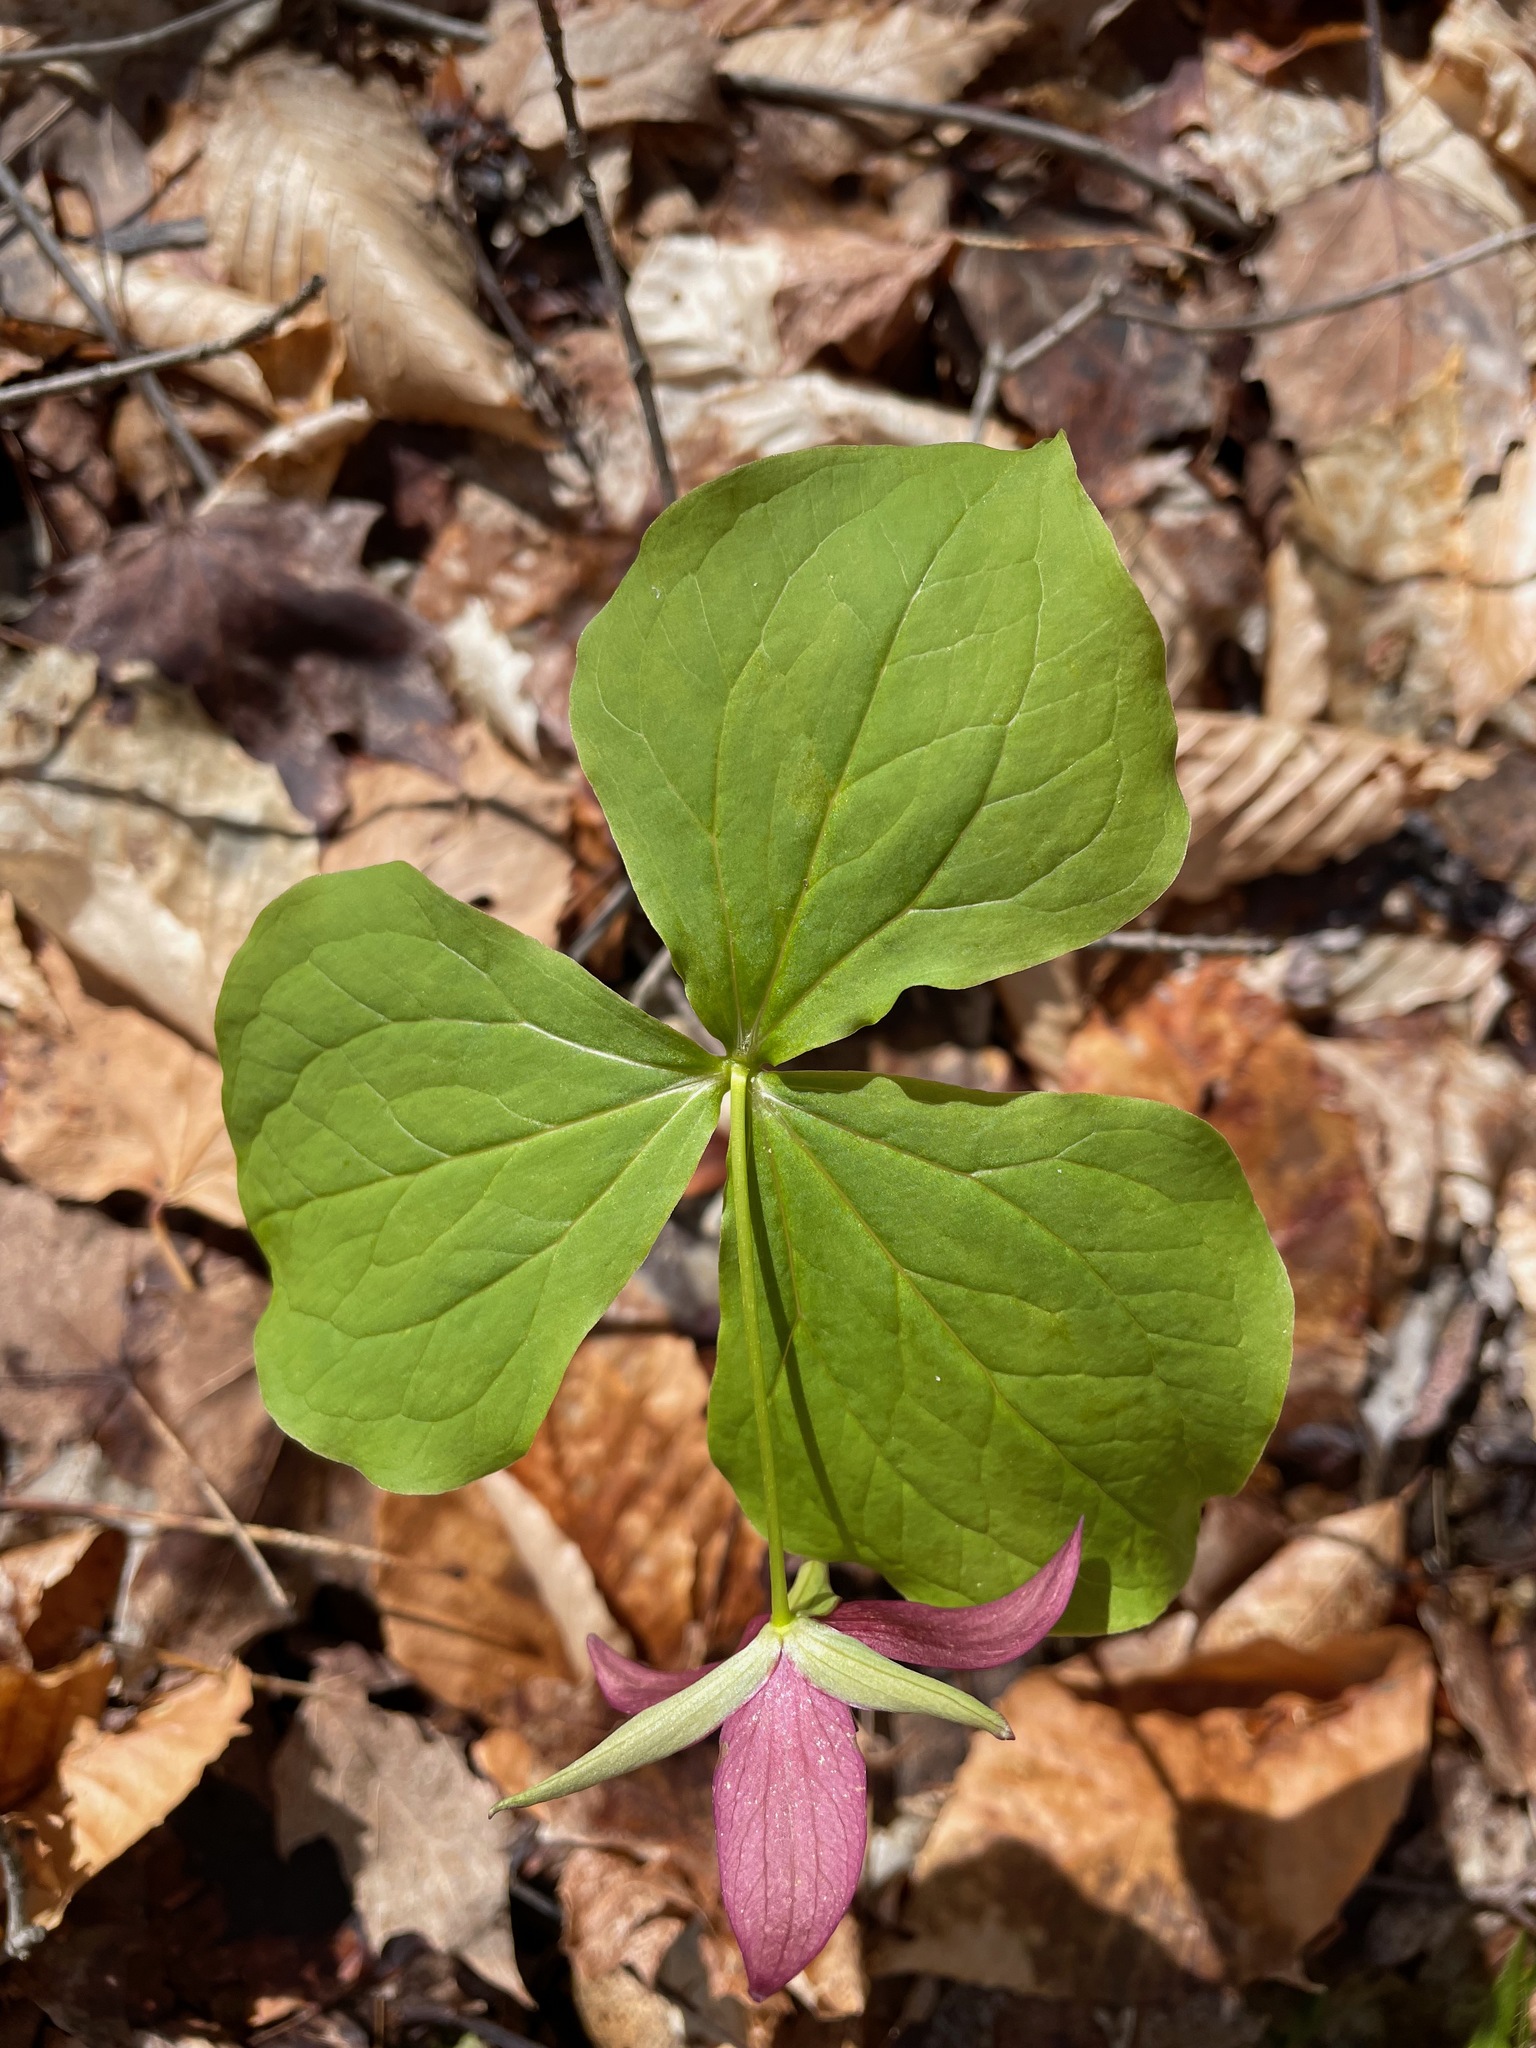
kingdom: Plantae
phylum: Tracheophyta
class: Liliopsida
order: Liliales
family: Melanthiaceae
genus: Trillium
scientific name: Trillium erectum
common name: Purple trillium
